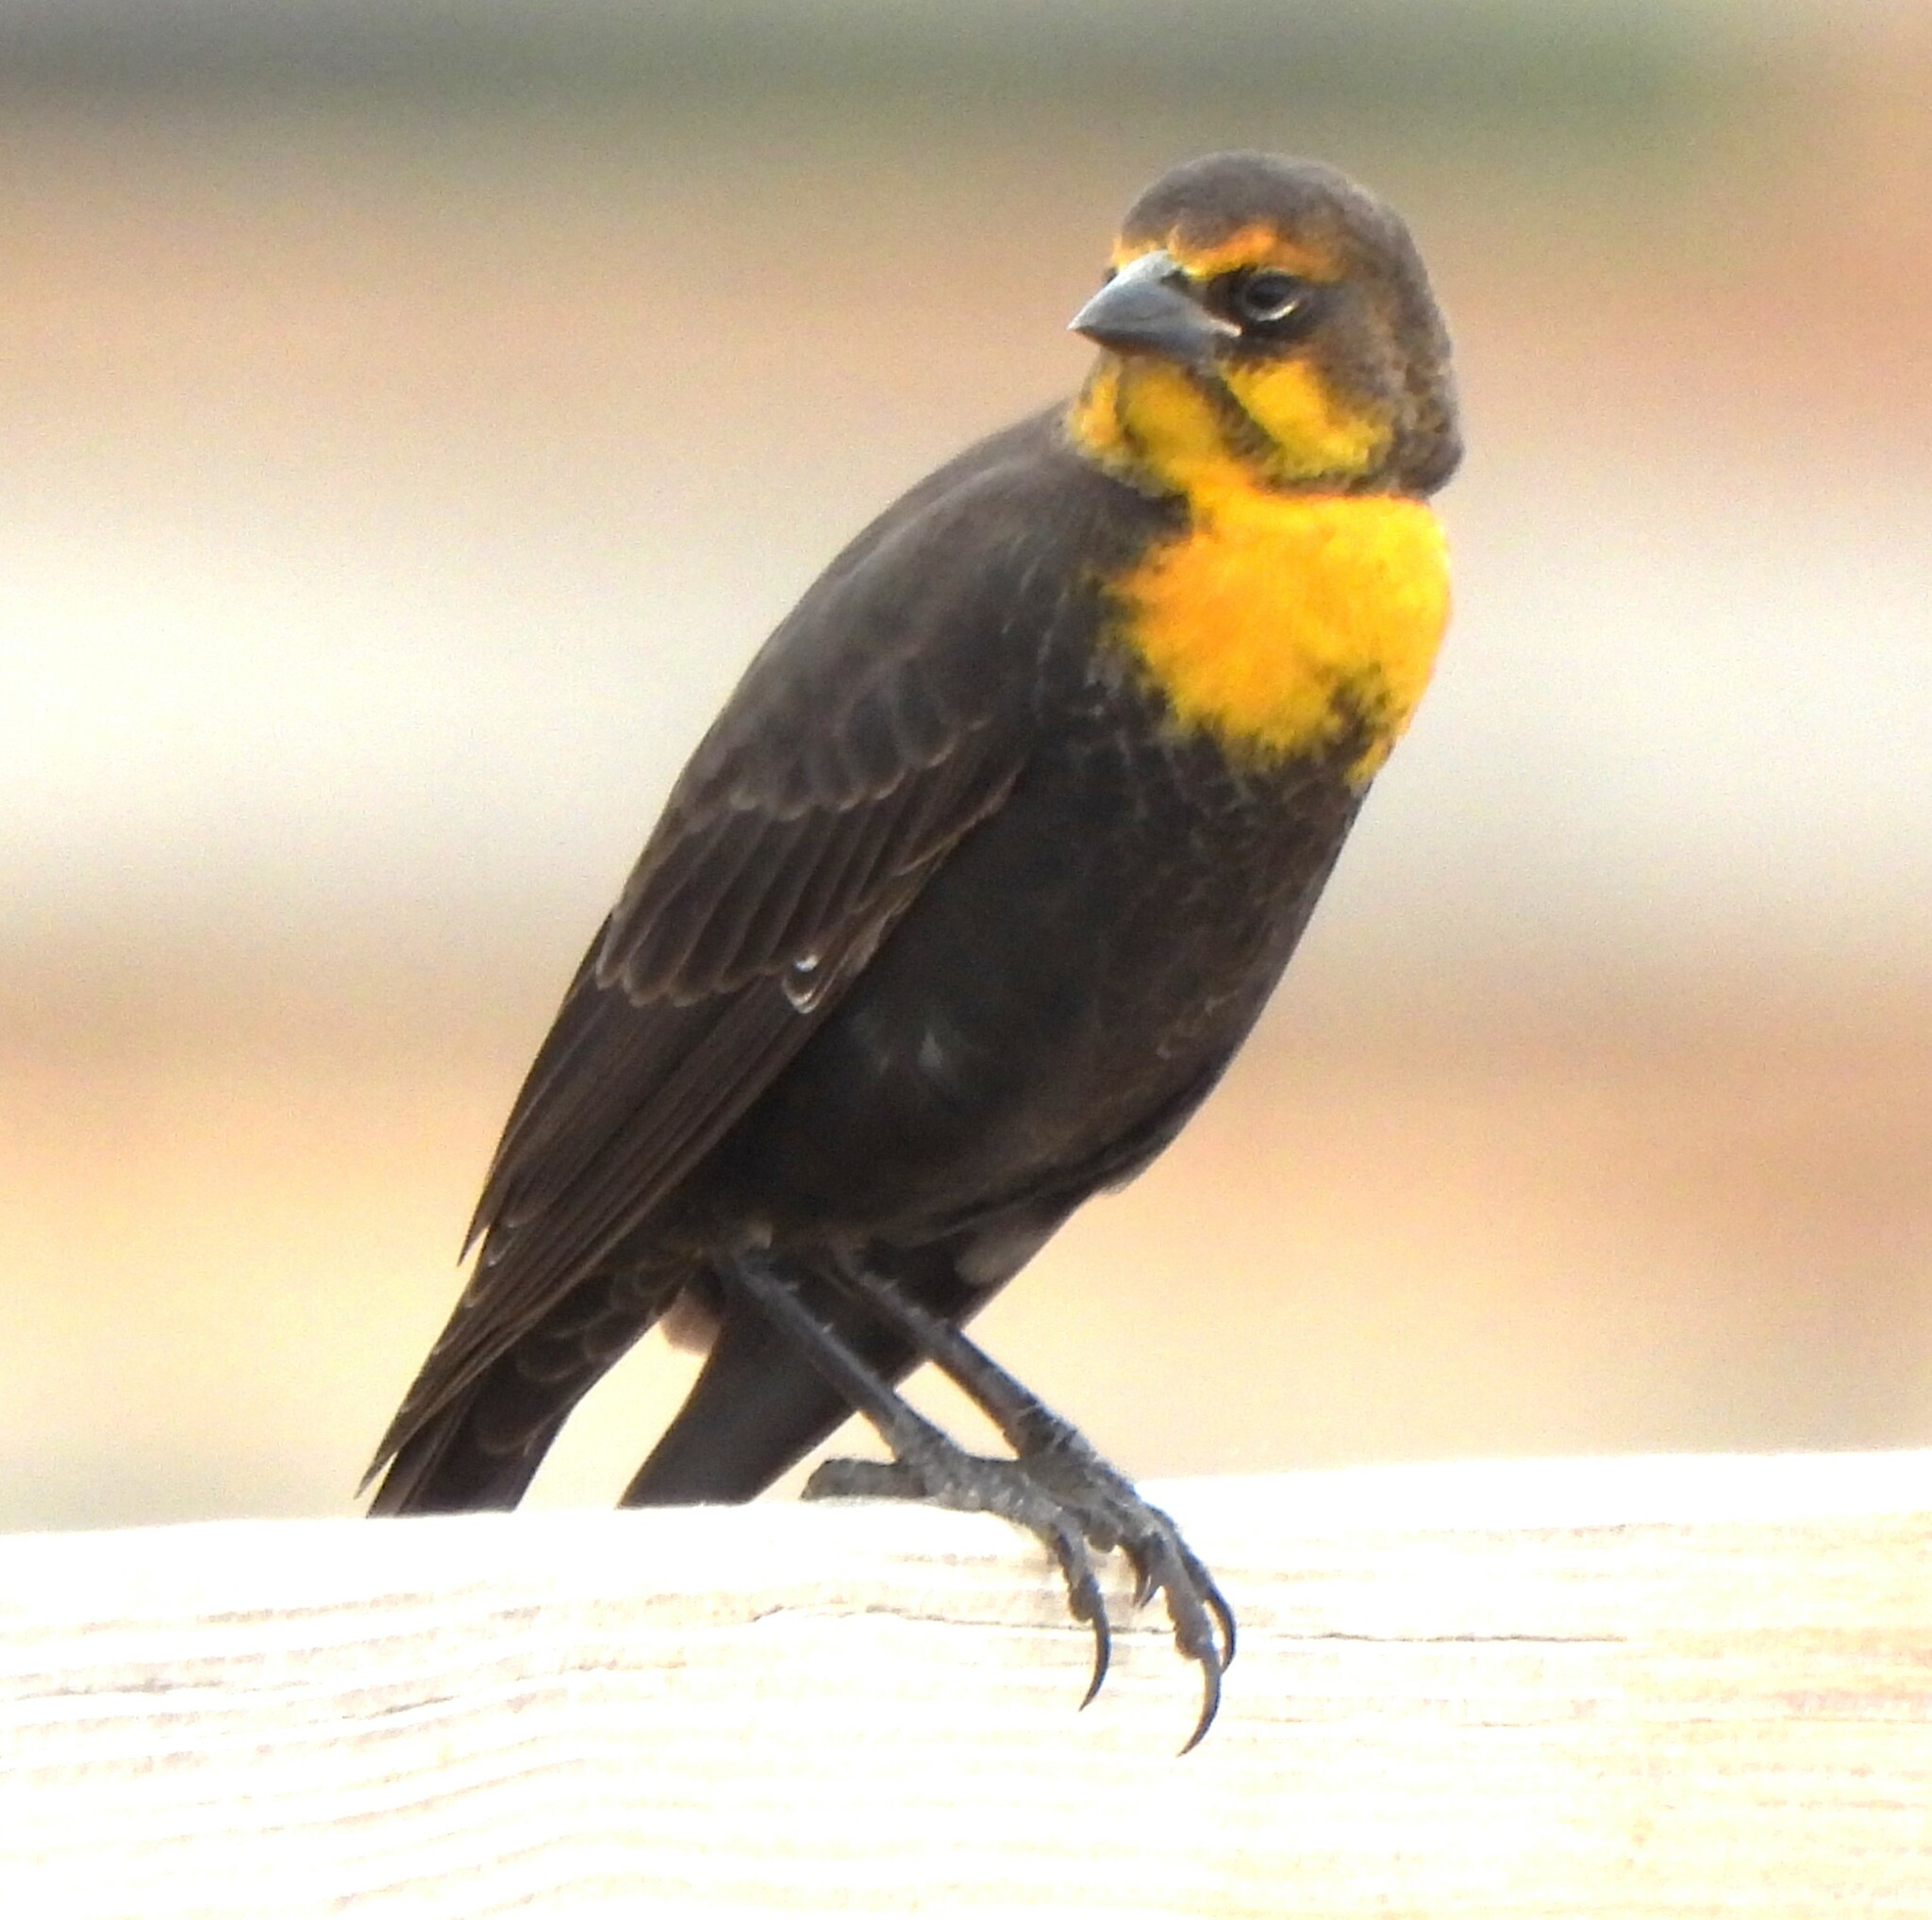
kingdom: Animalia
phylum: Chordata
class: Aves
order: Passeriformes
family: Icteridae
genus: Xanthocephalus
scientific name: Xanthocephalus xanthocephalus
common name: Yellow-headed blackbird
